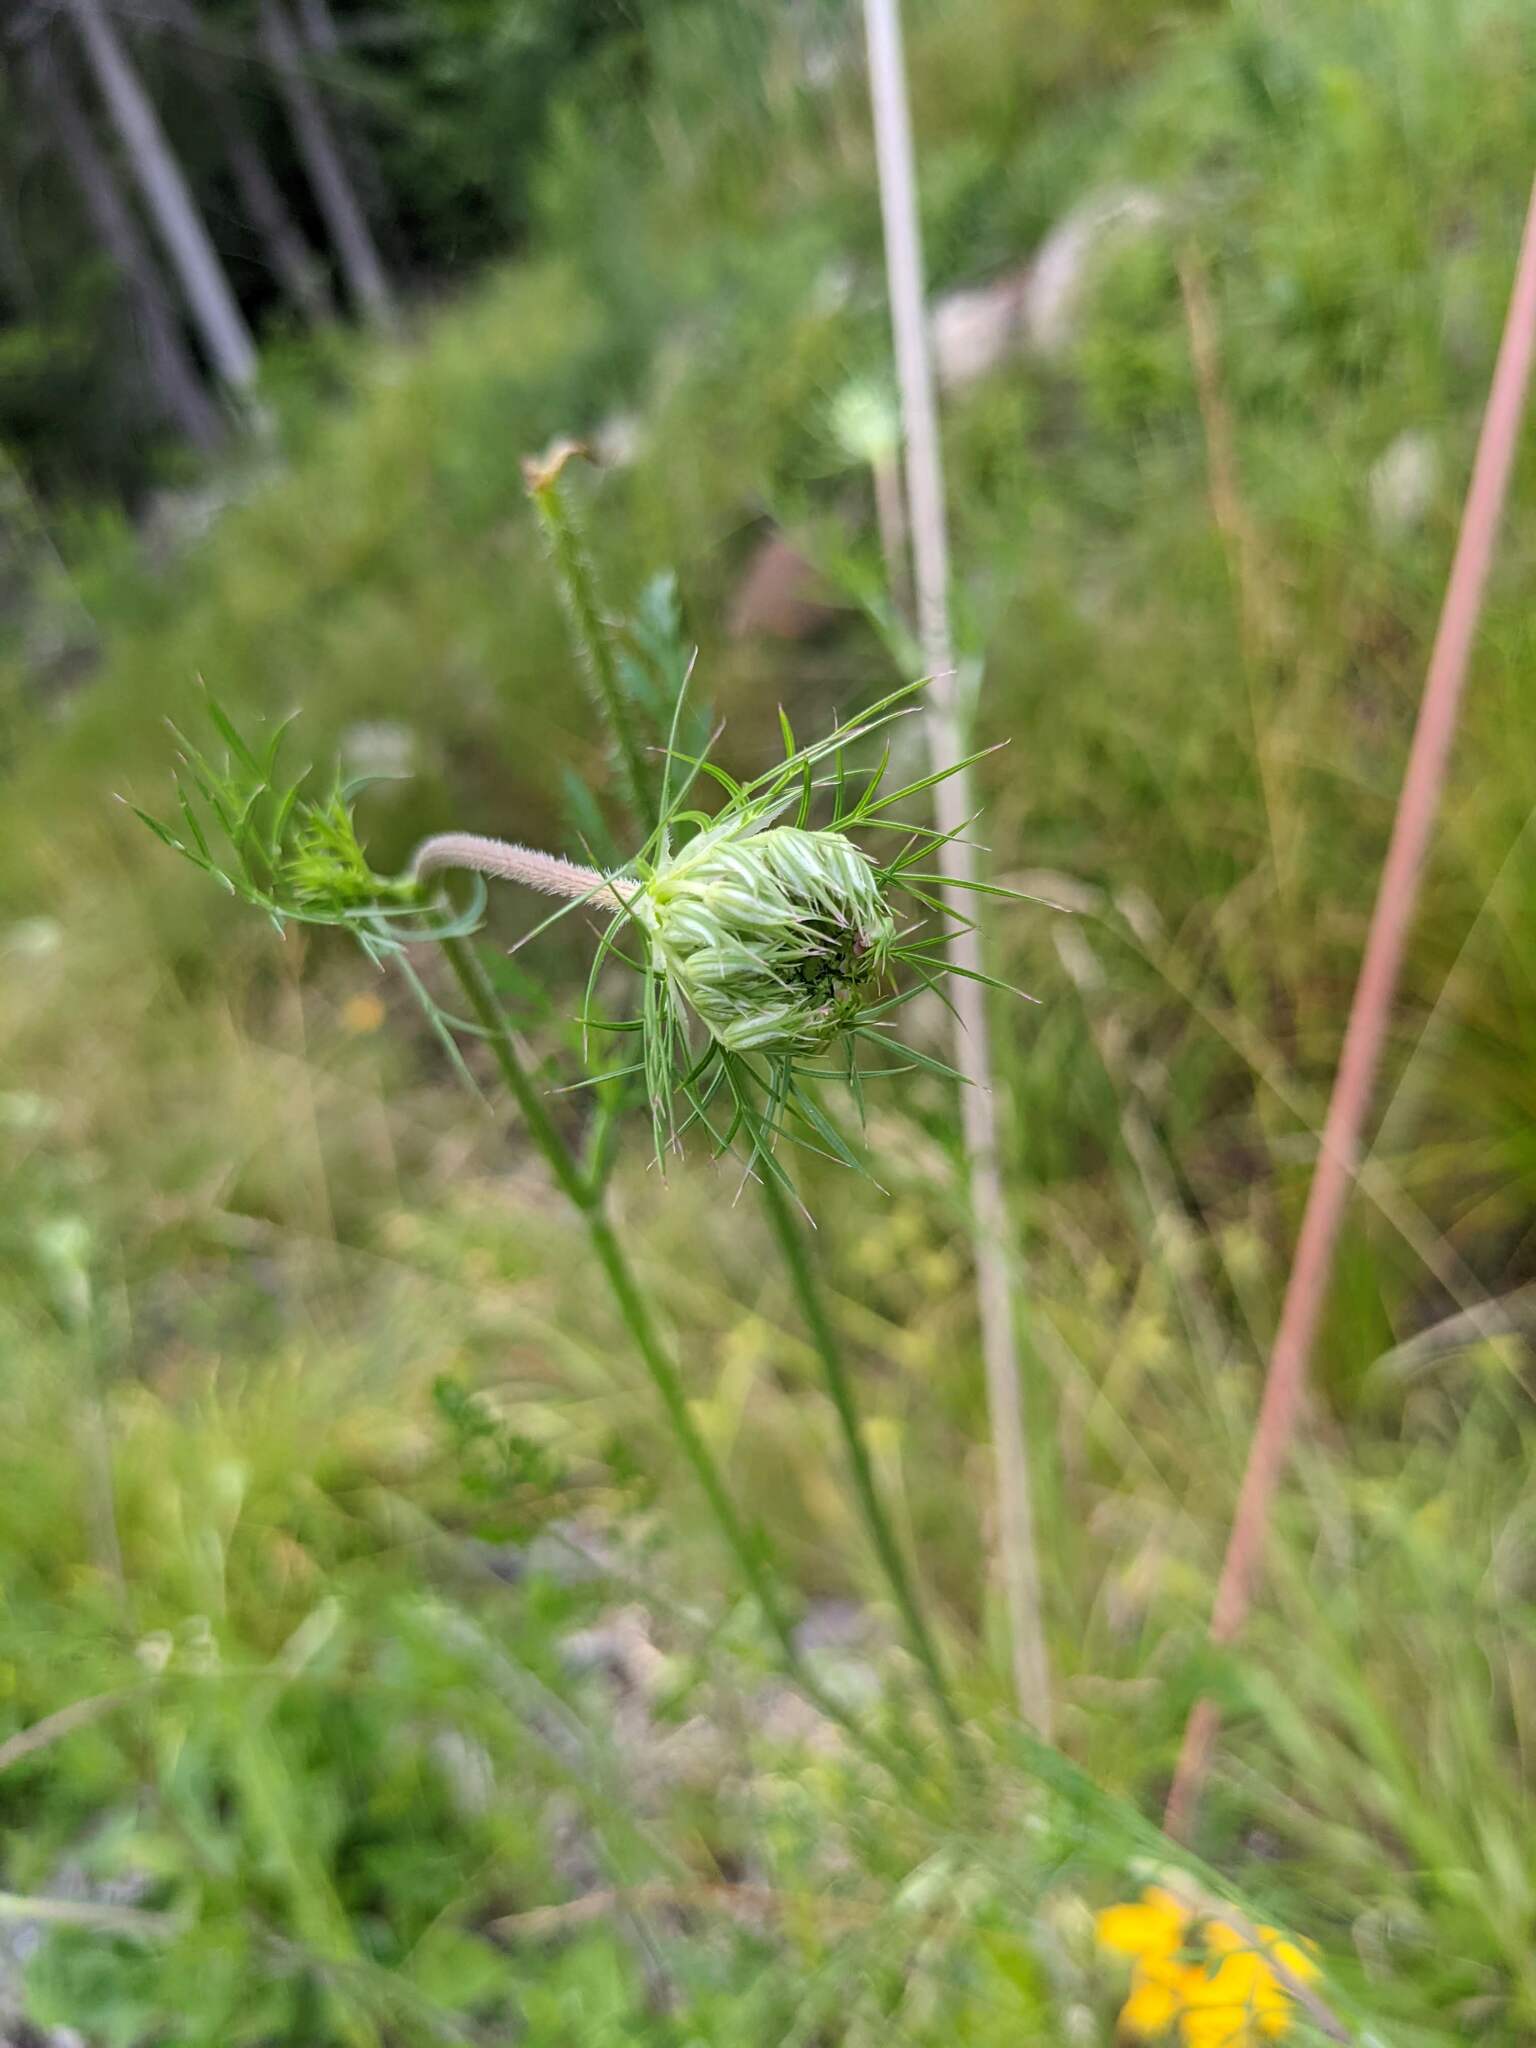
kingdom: Plantae
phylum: Tracheophyta
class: Magnoliopsida
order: Apiales
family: Apiaceae
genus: Daucus
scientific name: Daucus carota
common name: Wild carrot
